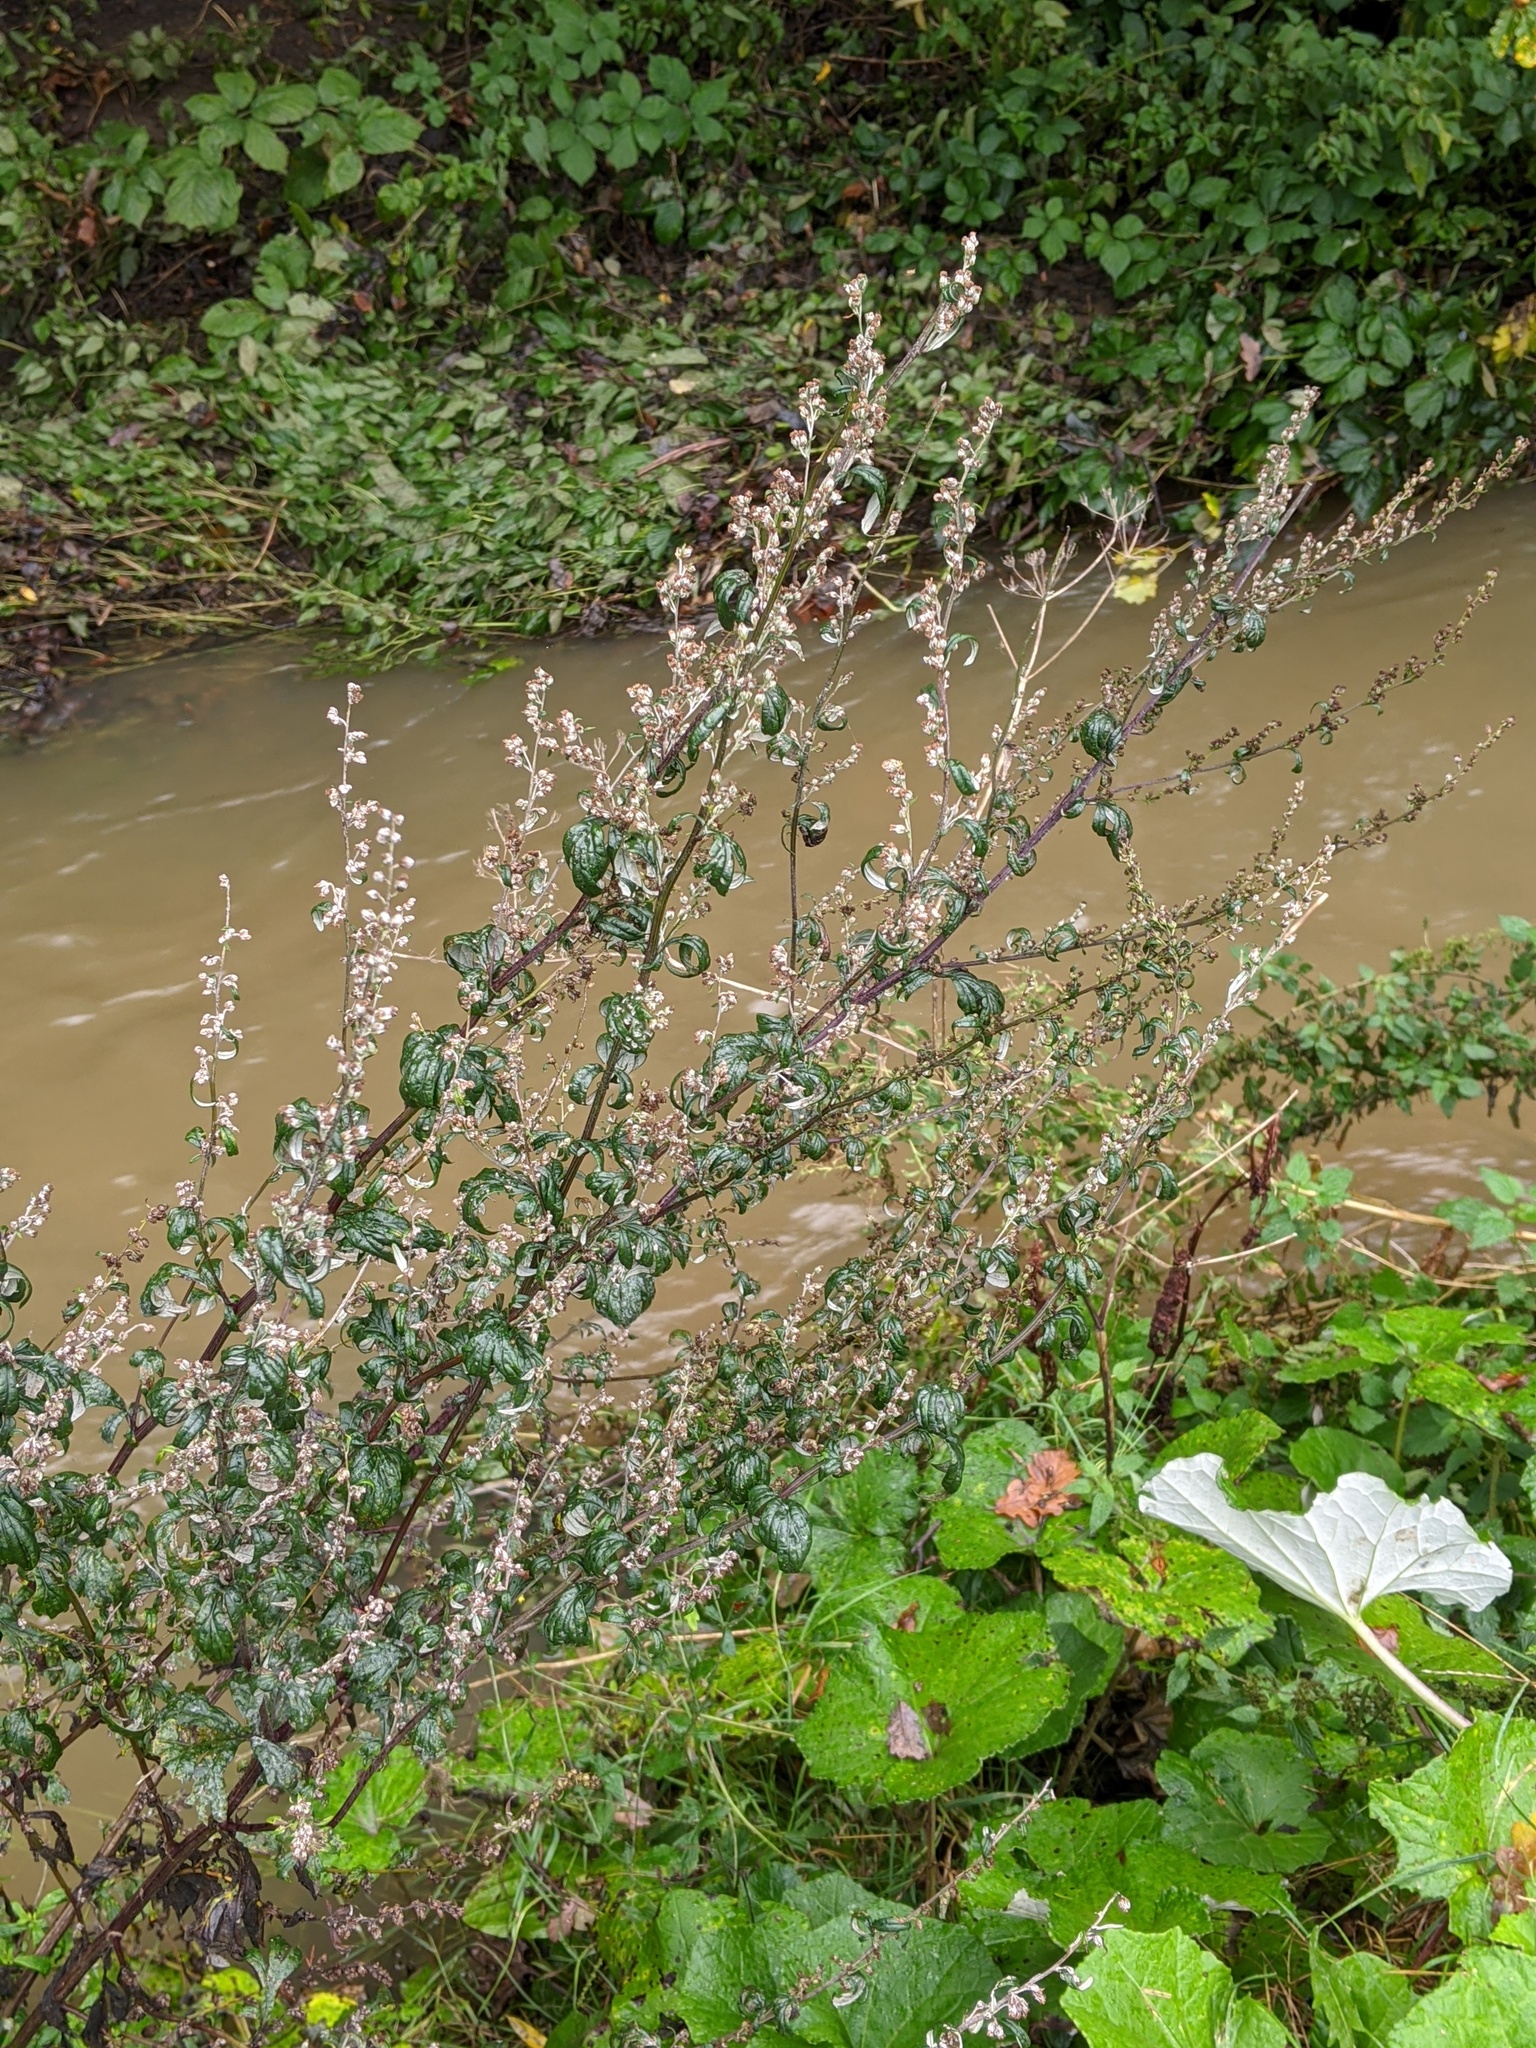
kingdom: Plantae
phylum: Tracheophyta
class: Magnoliopsida
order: Asterales
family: Asteraceae
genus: Artemisia
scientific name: Artemisia vulgaris
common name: Mugwort
